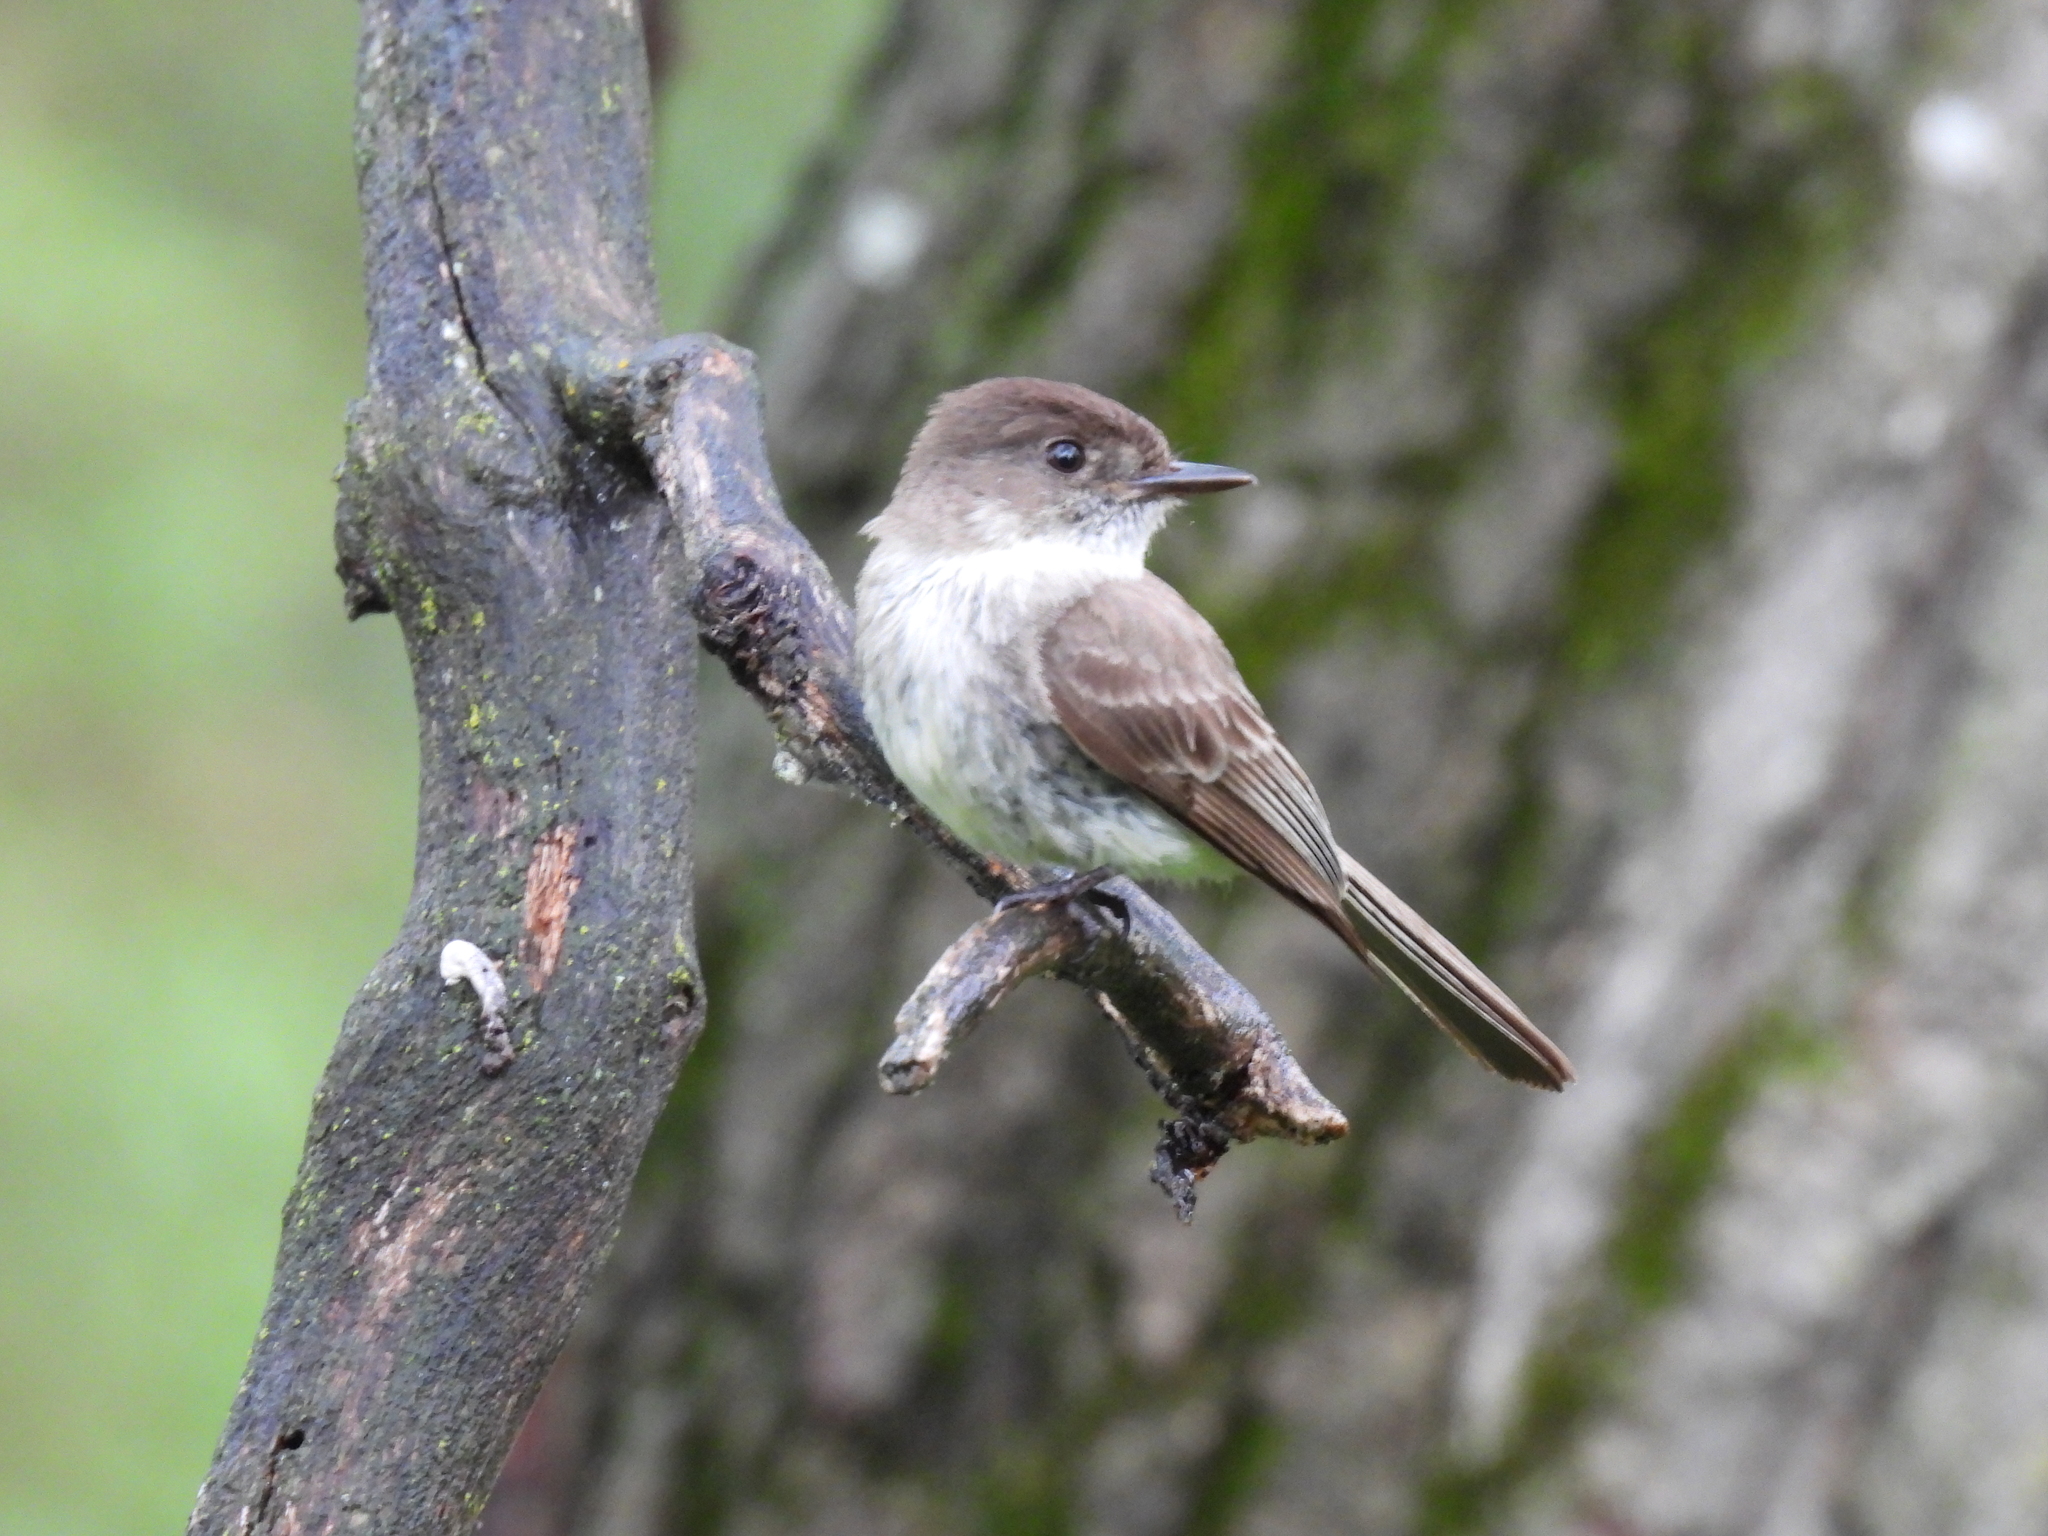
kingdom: Animalia
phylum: Chordata
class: Aves
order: Passeriformes
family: Tyrannidae
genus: Sayornis
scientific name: Sayornis phoebe
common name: Eastern phoebe
